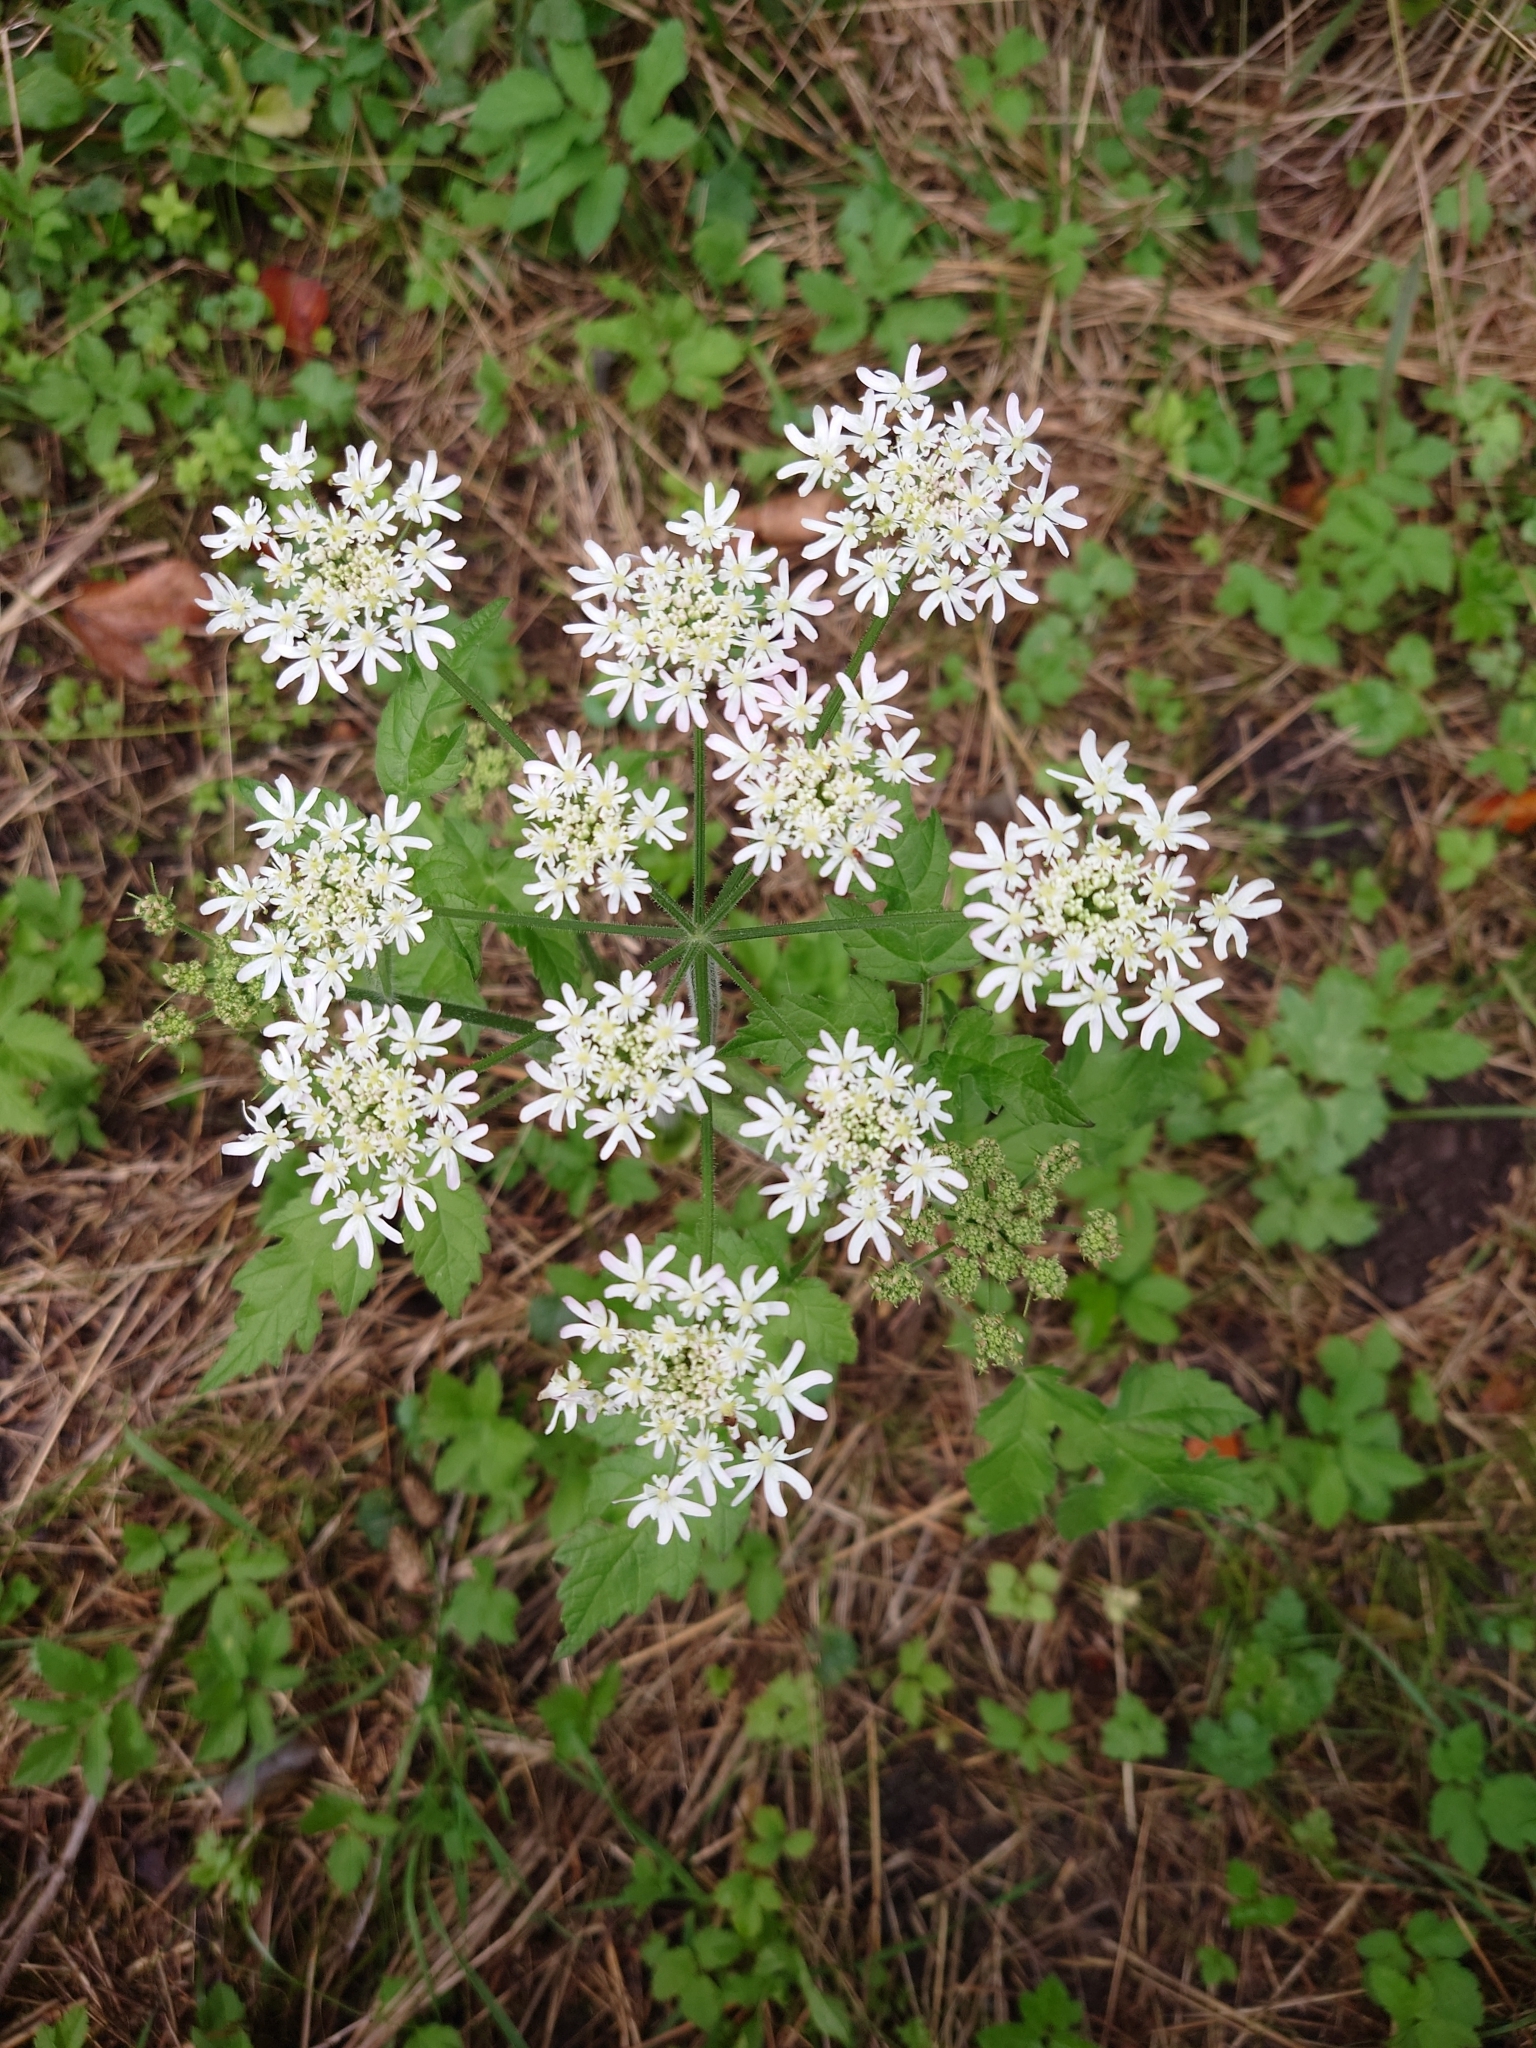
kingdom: Plantae
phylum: Tracheophyta
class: Magnoliopsida
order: Apiales
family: Apiaceae
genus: Heracleum
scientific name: Heracleum sphondylium
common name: Hogweed
